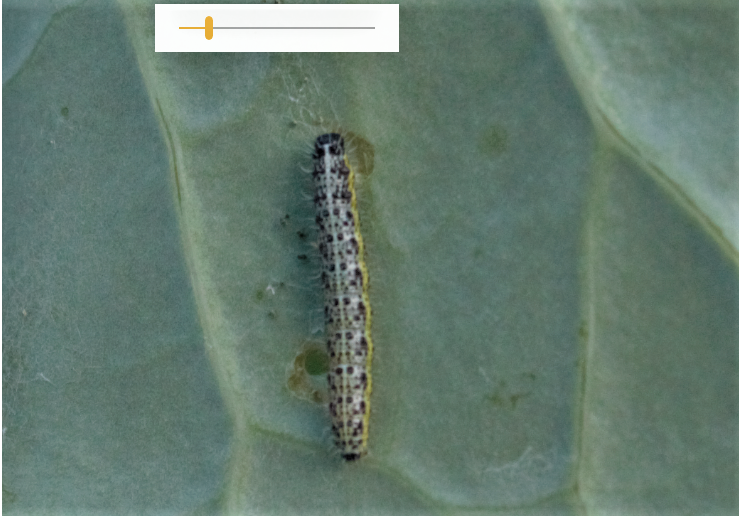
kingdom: Animalia
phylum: Arthropoda
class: Insecta
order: Lepidoptera
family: Pieridae
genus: Pieris
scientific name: Pieris brassicae
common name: Large white
